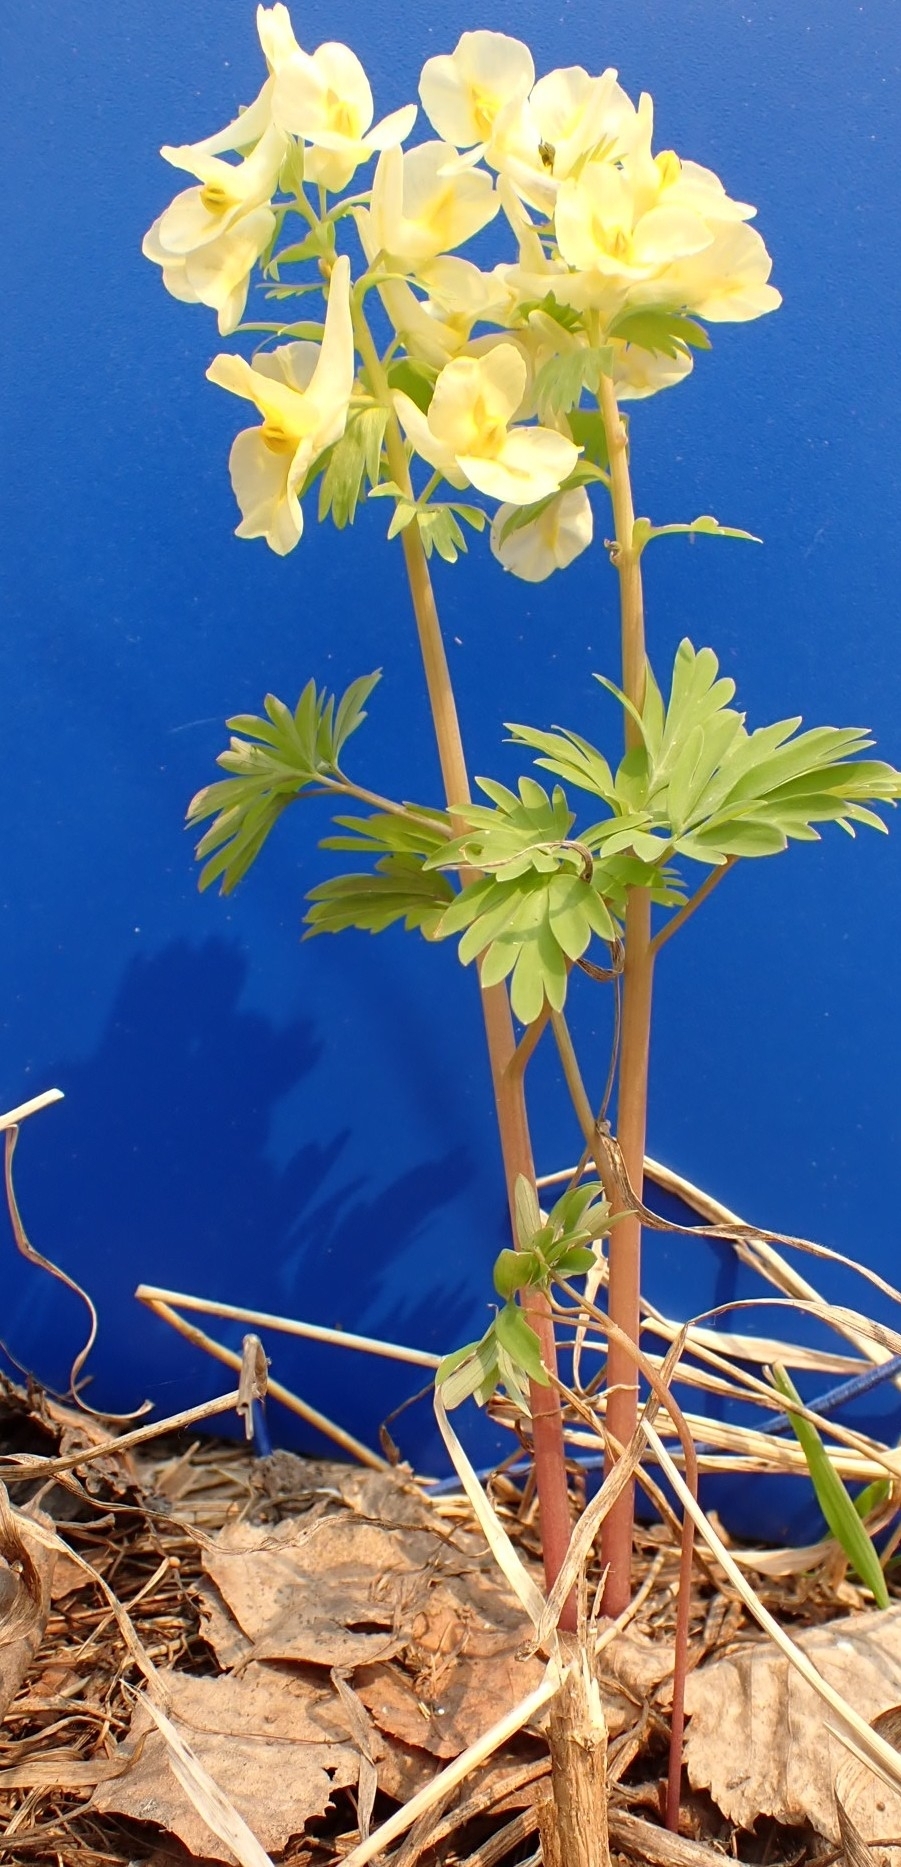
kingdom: Plantae
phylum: Tracheophyta
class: Magnoliopsida
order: Ranunculales
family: Papaveraceae
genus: Corydalis
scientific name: Corydalis bracteata
